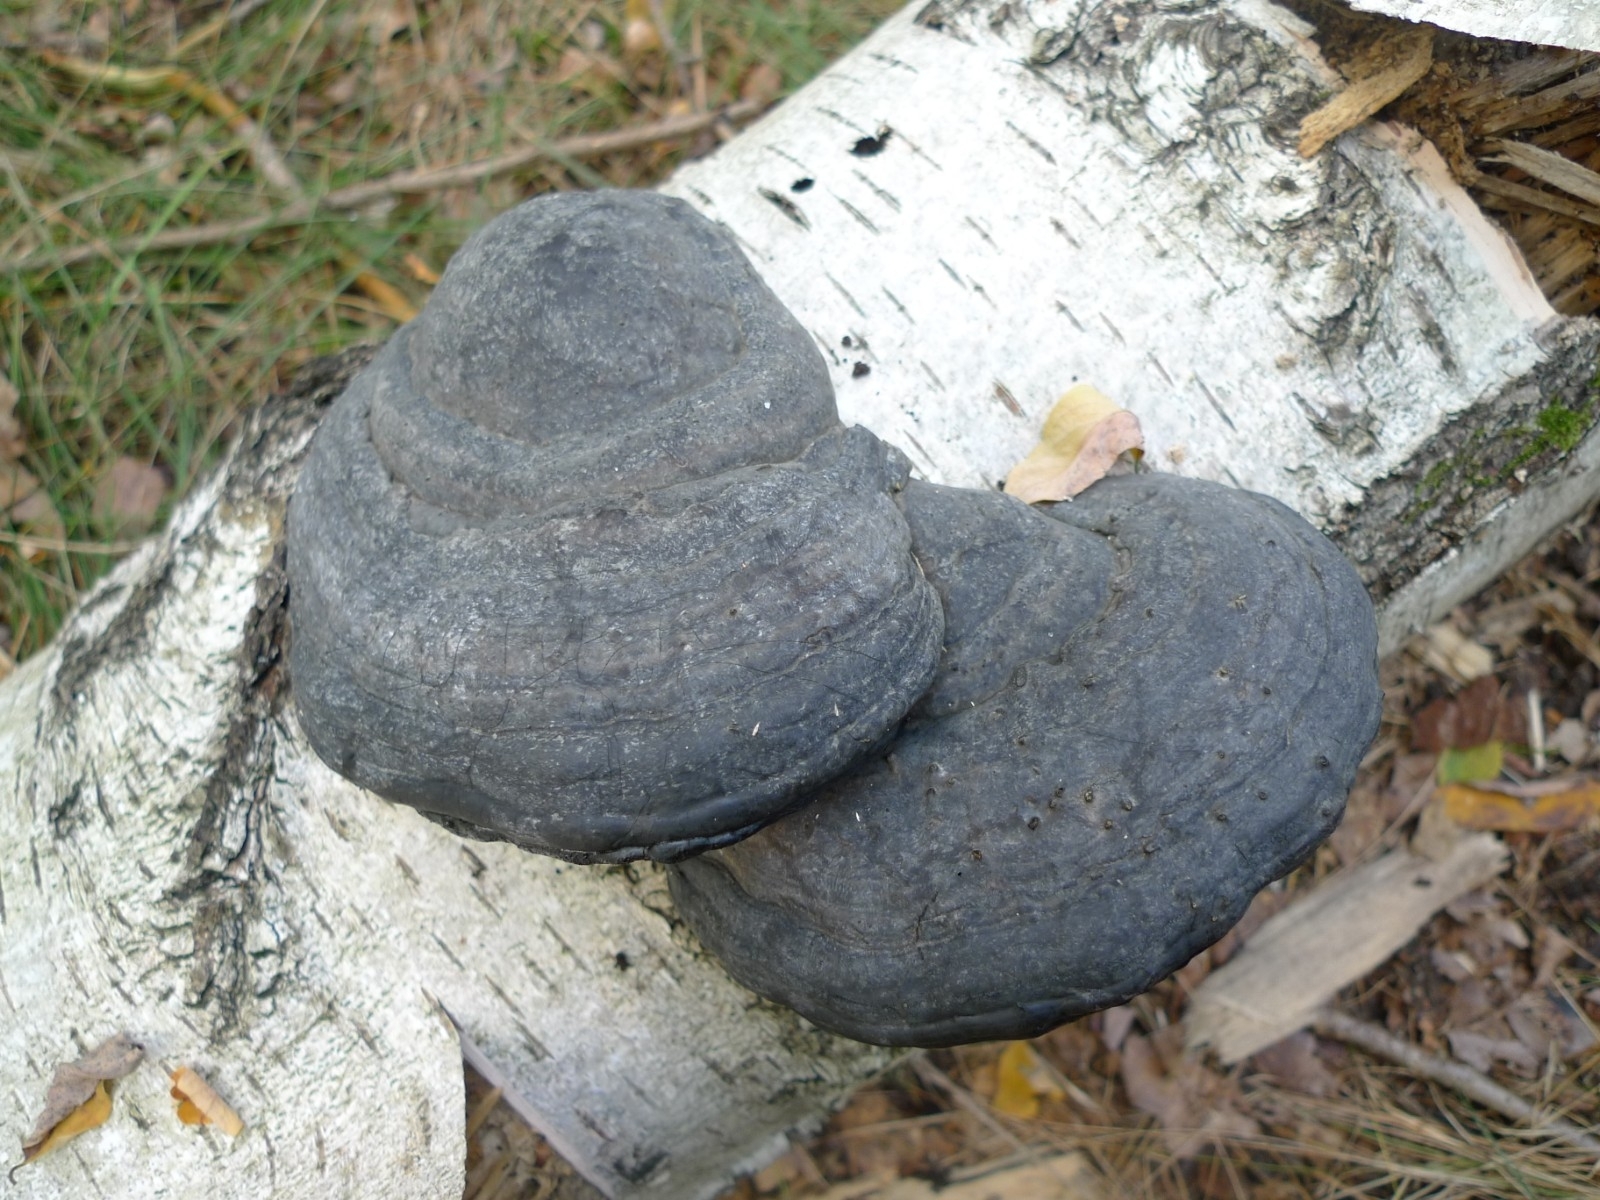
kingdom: Fungi
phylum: Basidiomycota
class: Agaricomycetes
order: Polyporales
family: Polyporaceae
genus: Fomes
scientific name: Fomes fomentarius
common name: Hoof fungus
